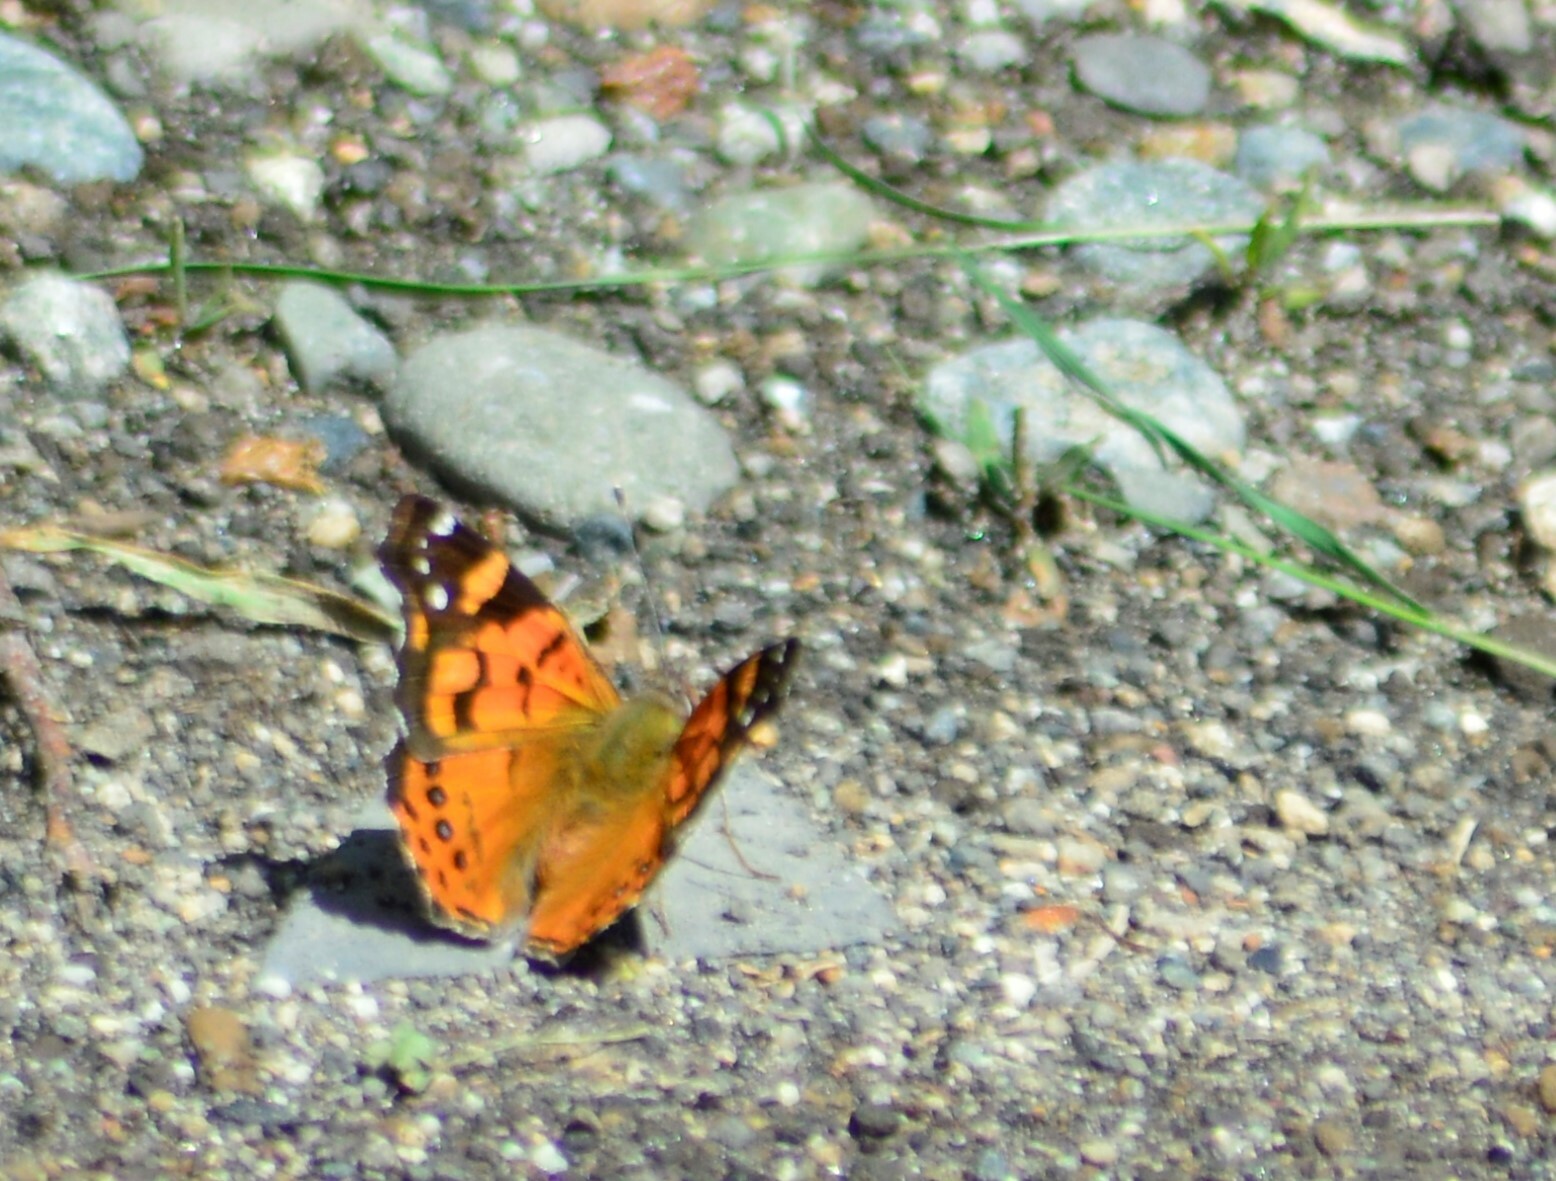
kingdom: Animalia
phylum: Arthropoda
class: Insecta
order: Lepidoptera
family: Nymphalidae
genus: Vanessa
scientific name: Vanessa carye
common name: Subtropical lady
